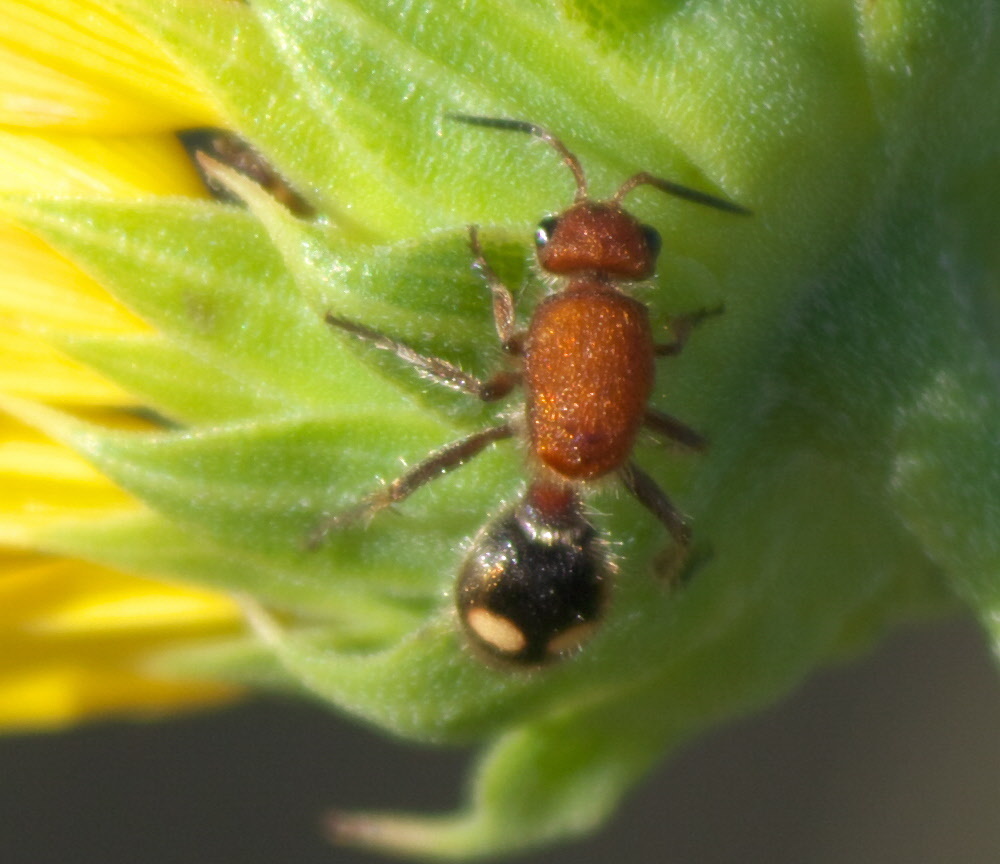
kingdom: Animalia
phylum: Arthropoda
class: Insecta
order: Hymenoptera
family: Mutillidae
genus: Dasymutilla
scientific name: Dasymutilla
